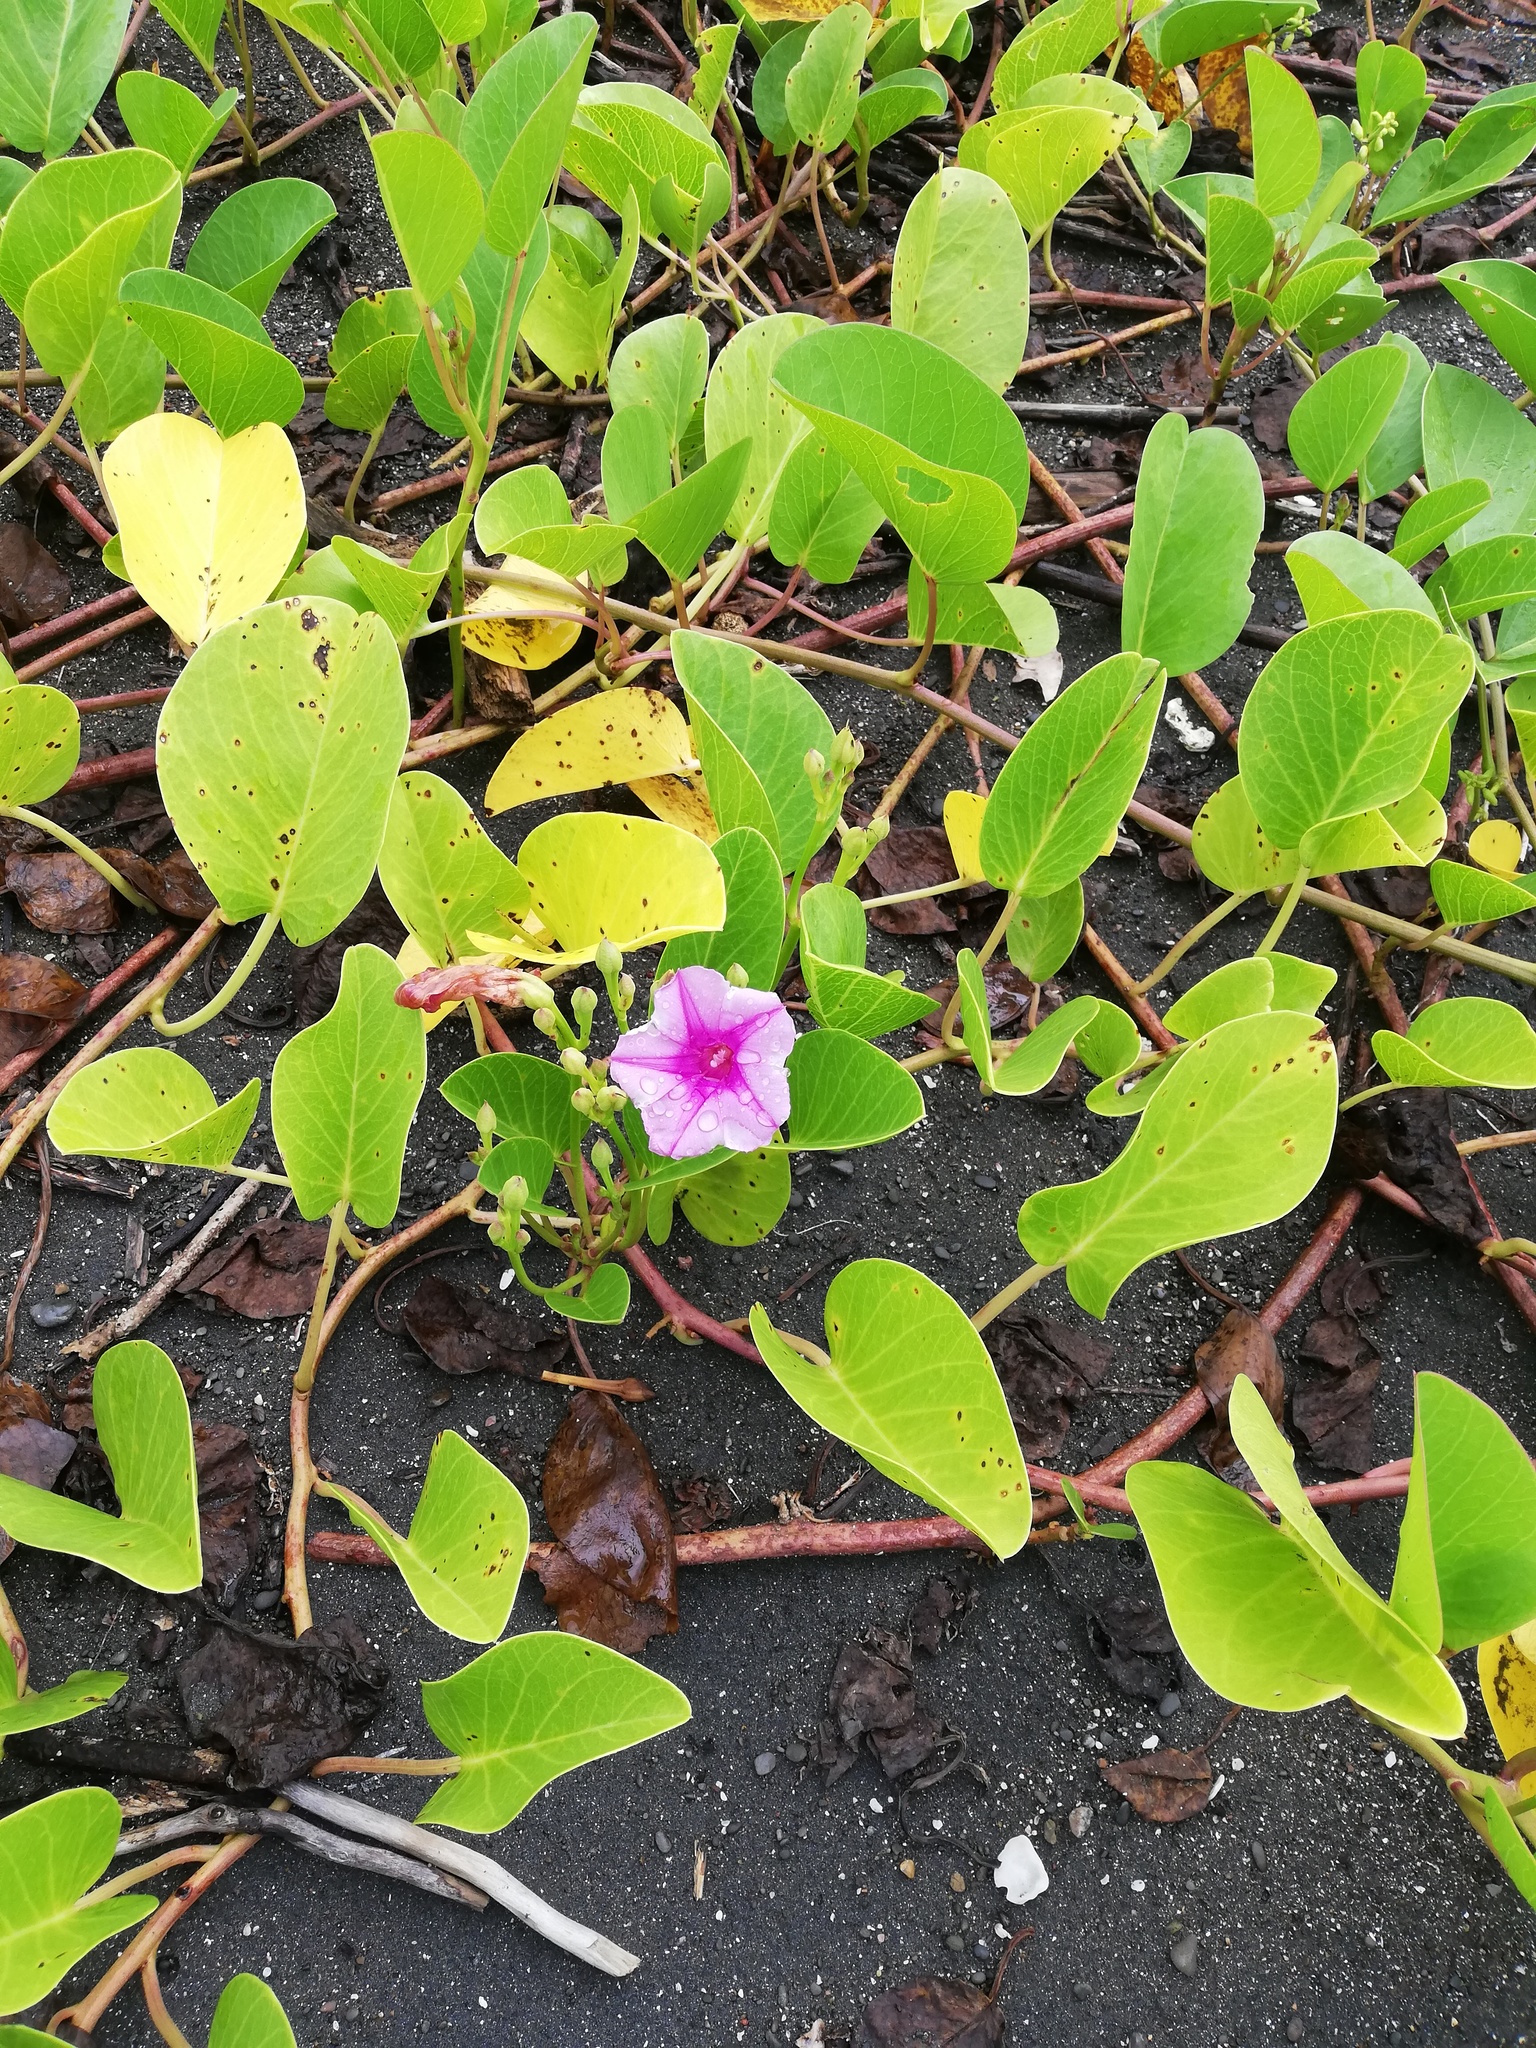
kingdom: Plantae
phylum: Tracheophyta
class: Magnoliopsida
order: Solanales
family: Convolvulaceae
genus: Ipomoea
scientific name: Ipomoea pes-caprae
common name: Beach morning glory
